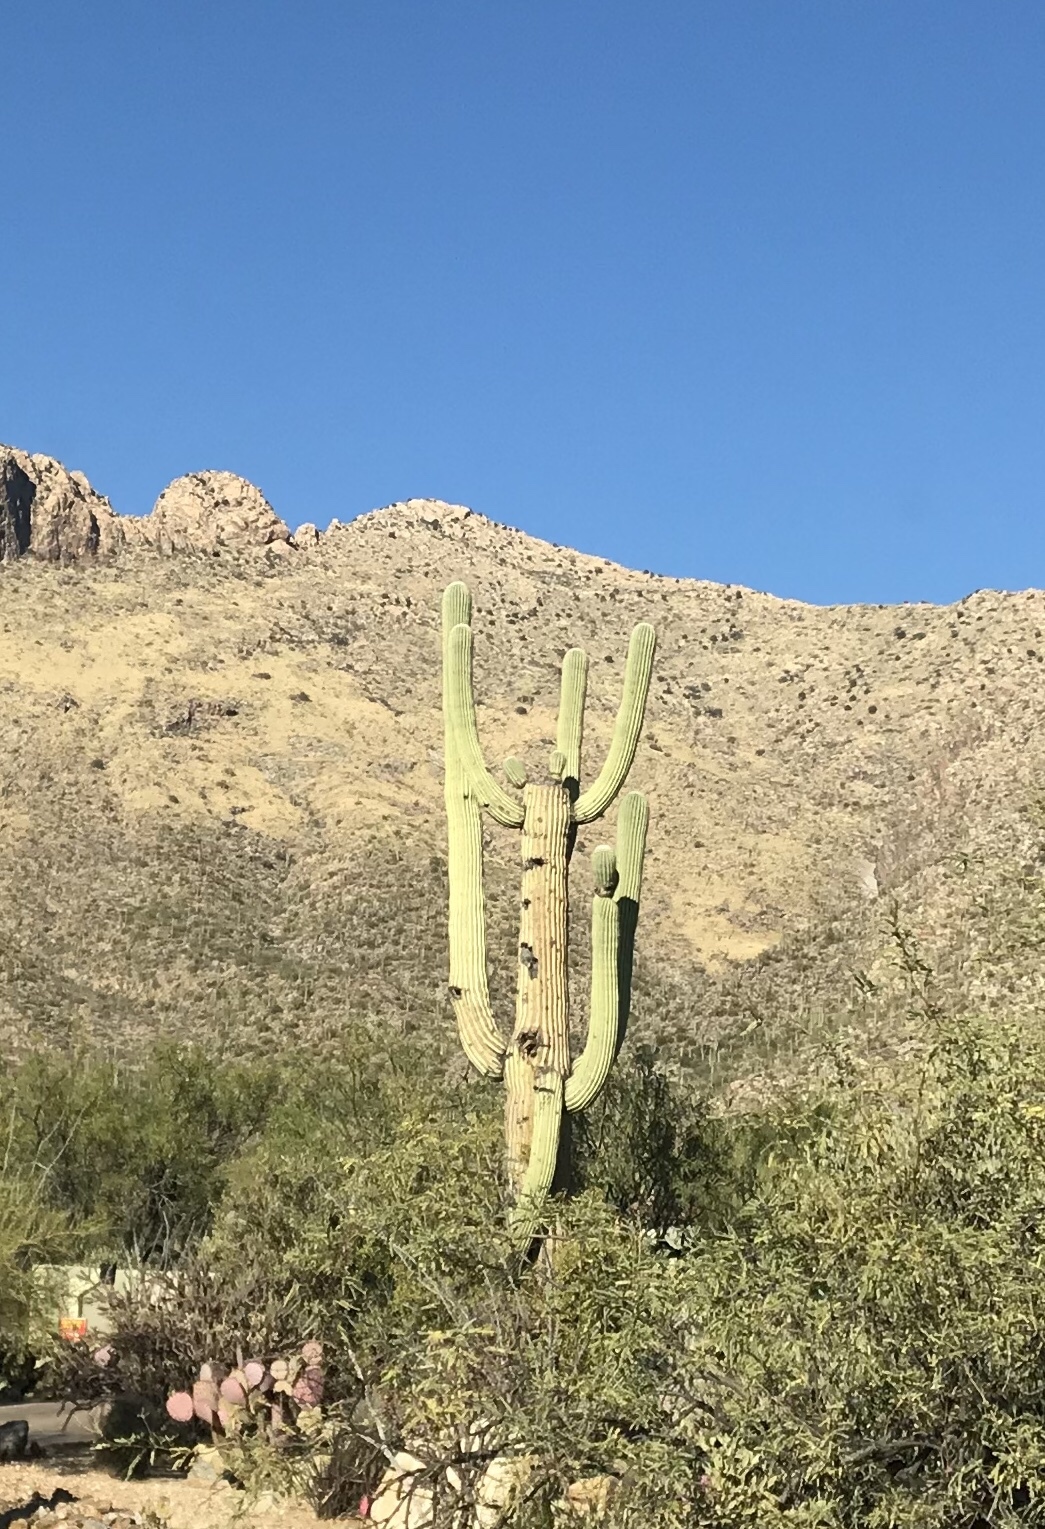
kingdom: Plantae
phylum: Tracheophyta
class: Magnoliopsida
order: Caryophyllales
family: Cactaceae
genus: Carnegiea
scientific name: Carnegiea gigantea
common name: Saguaro
